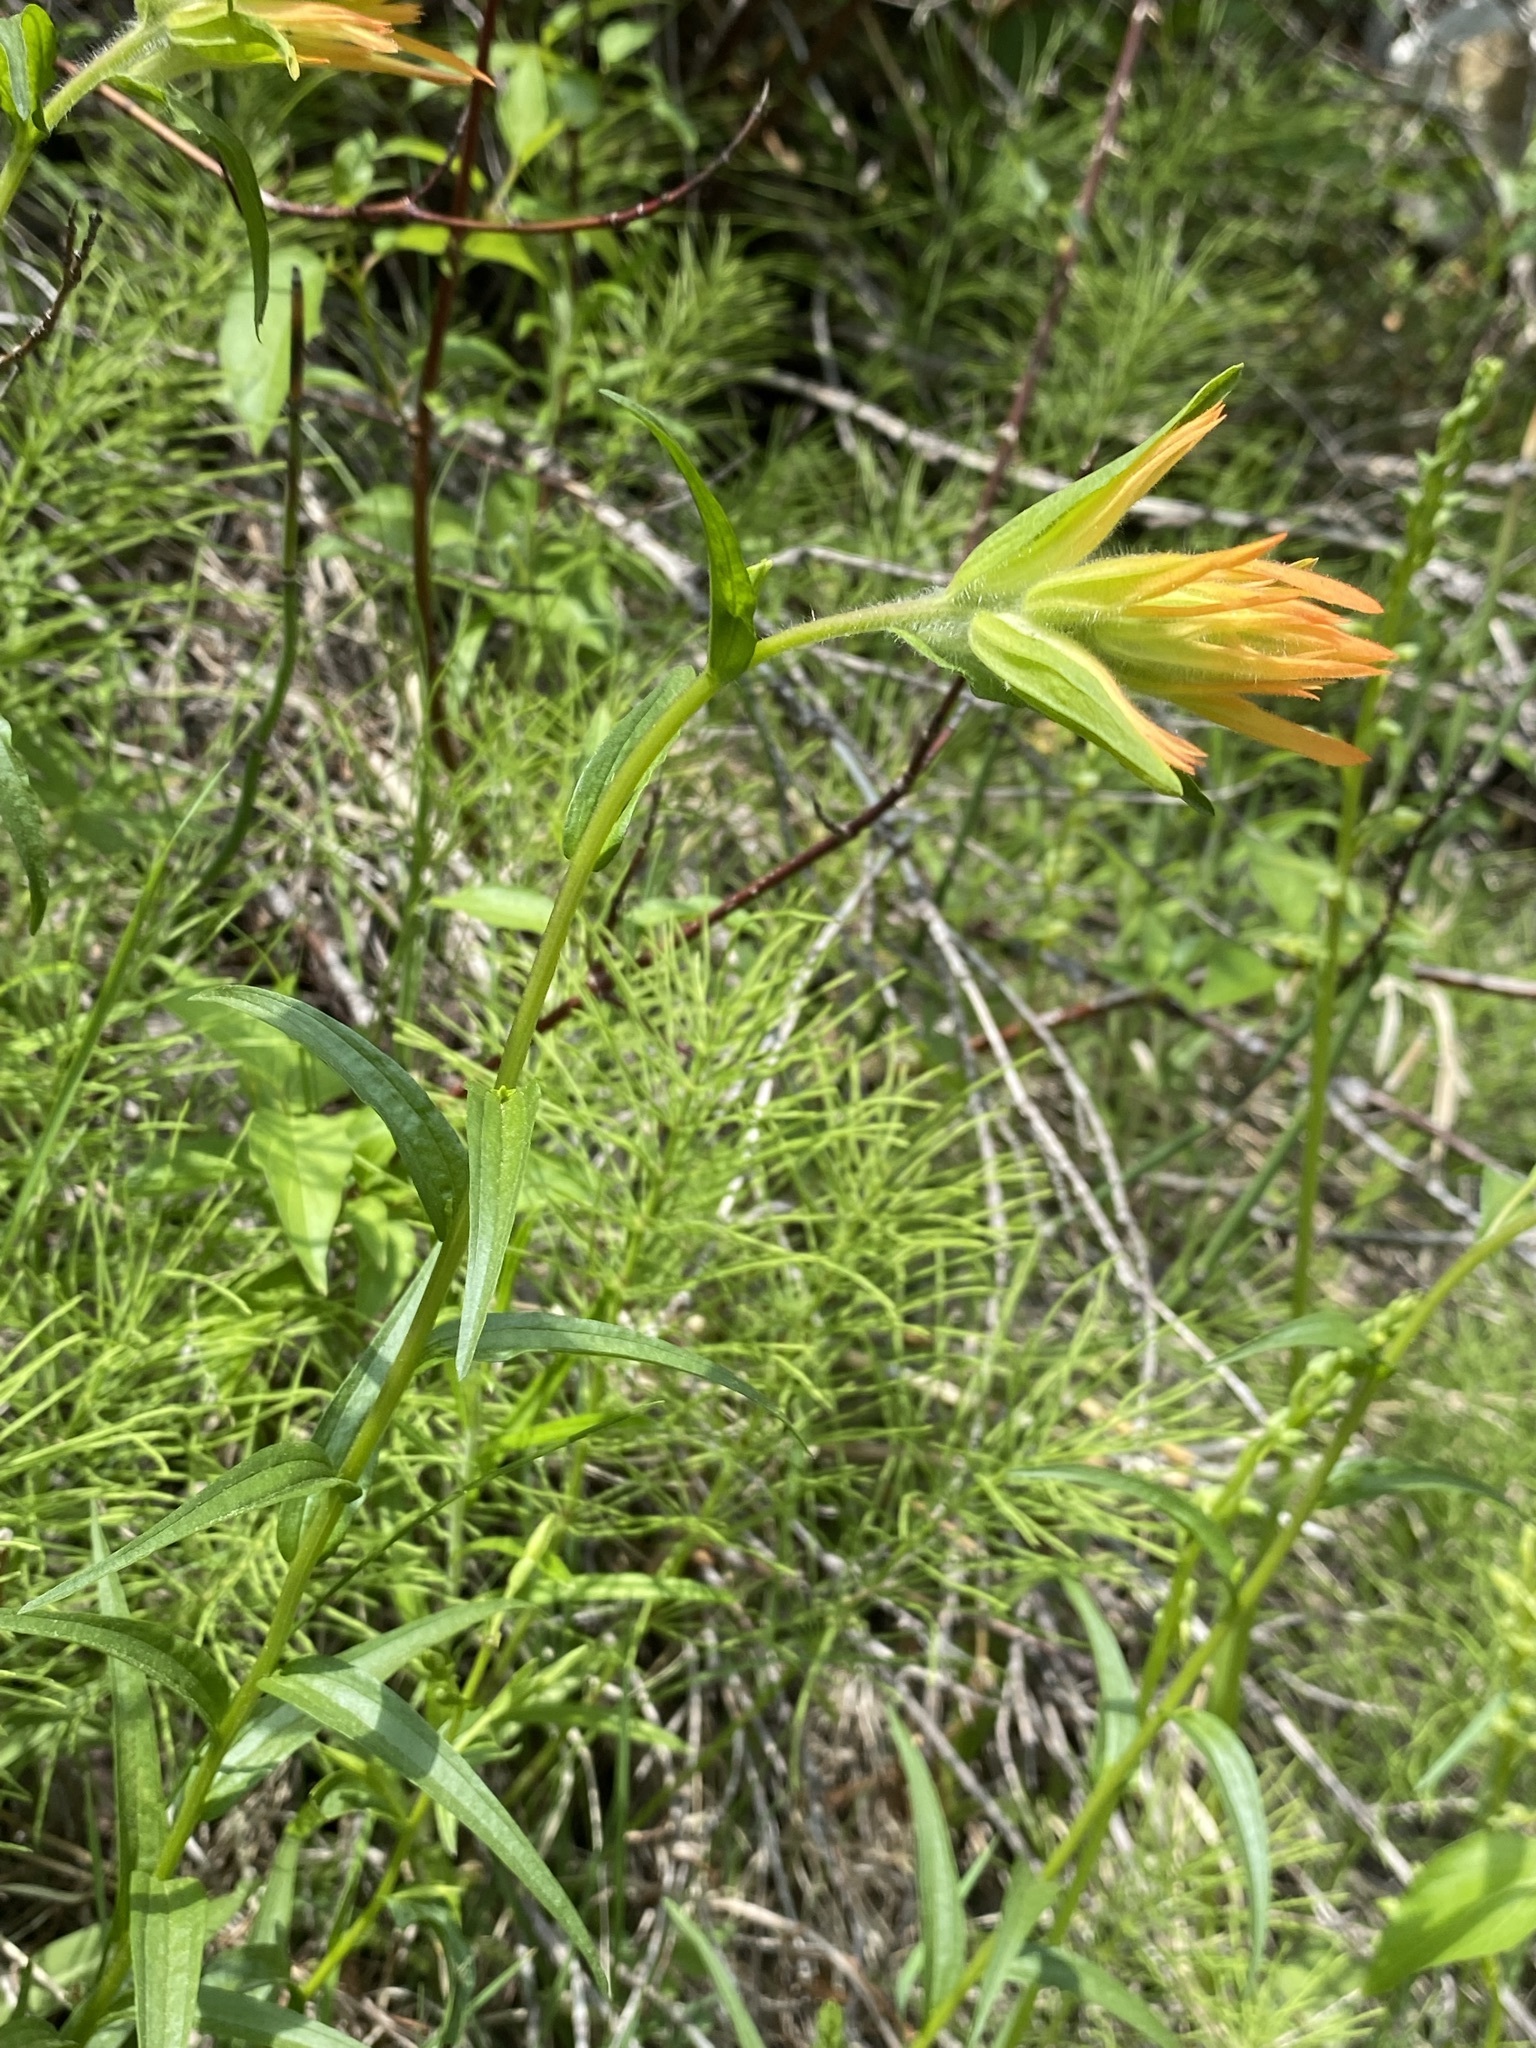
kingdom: Plantae
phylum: Tracheophyta
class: Magnoliopsida
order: Lamiales
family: Orobanchaceae
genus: Castilleja
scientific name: Castilleja miniata
